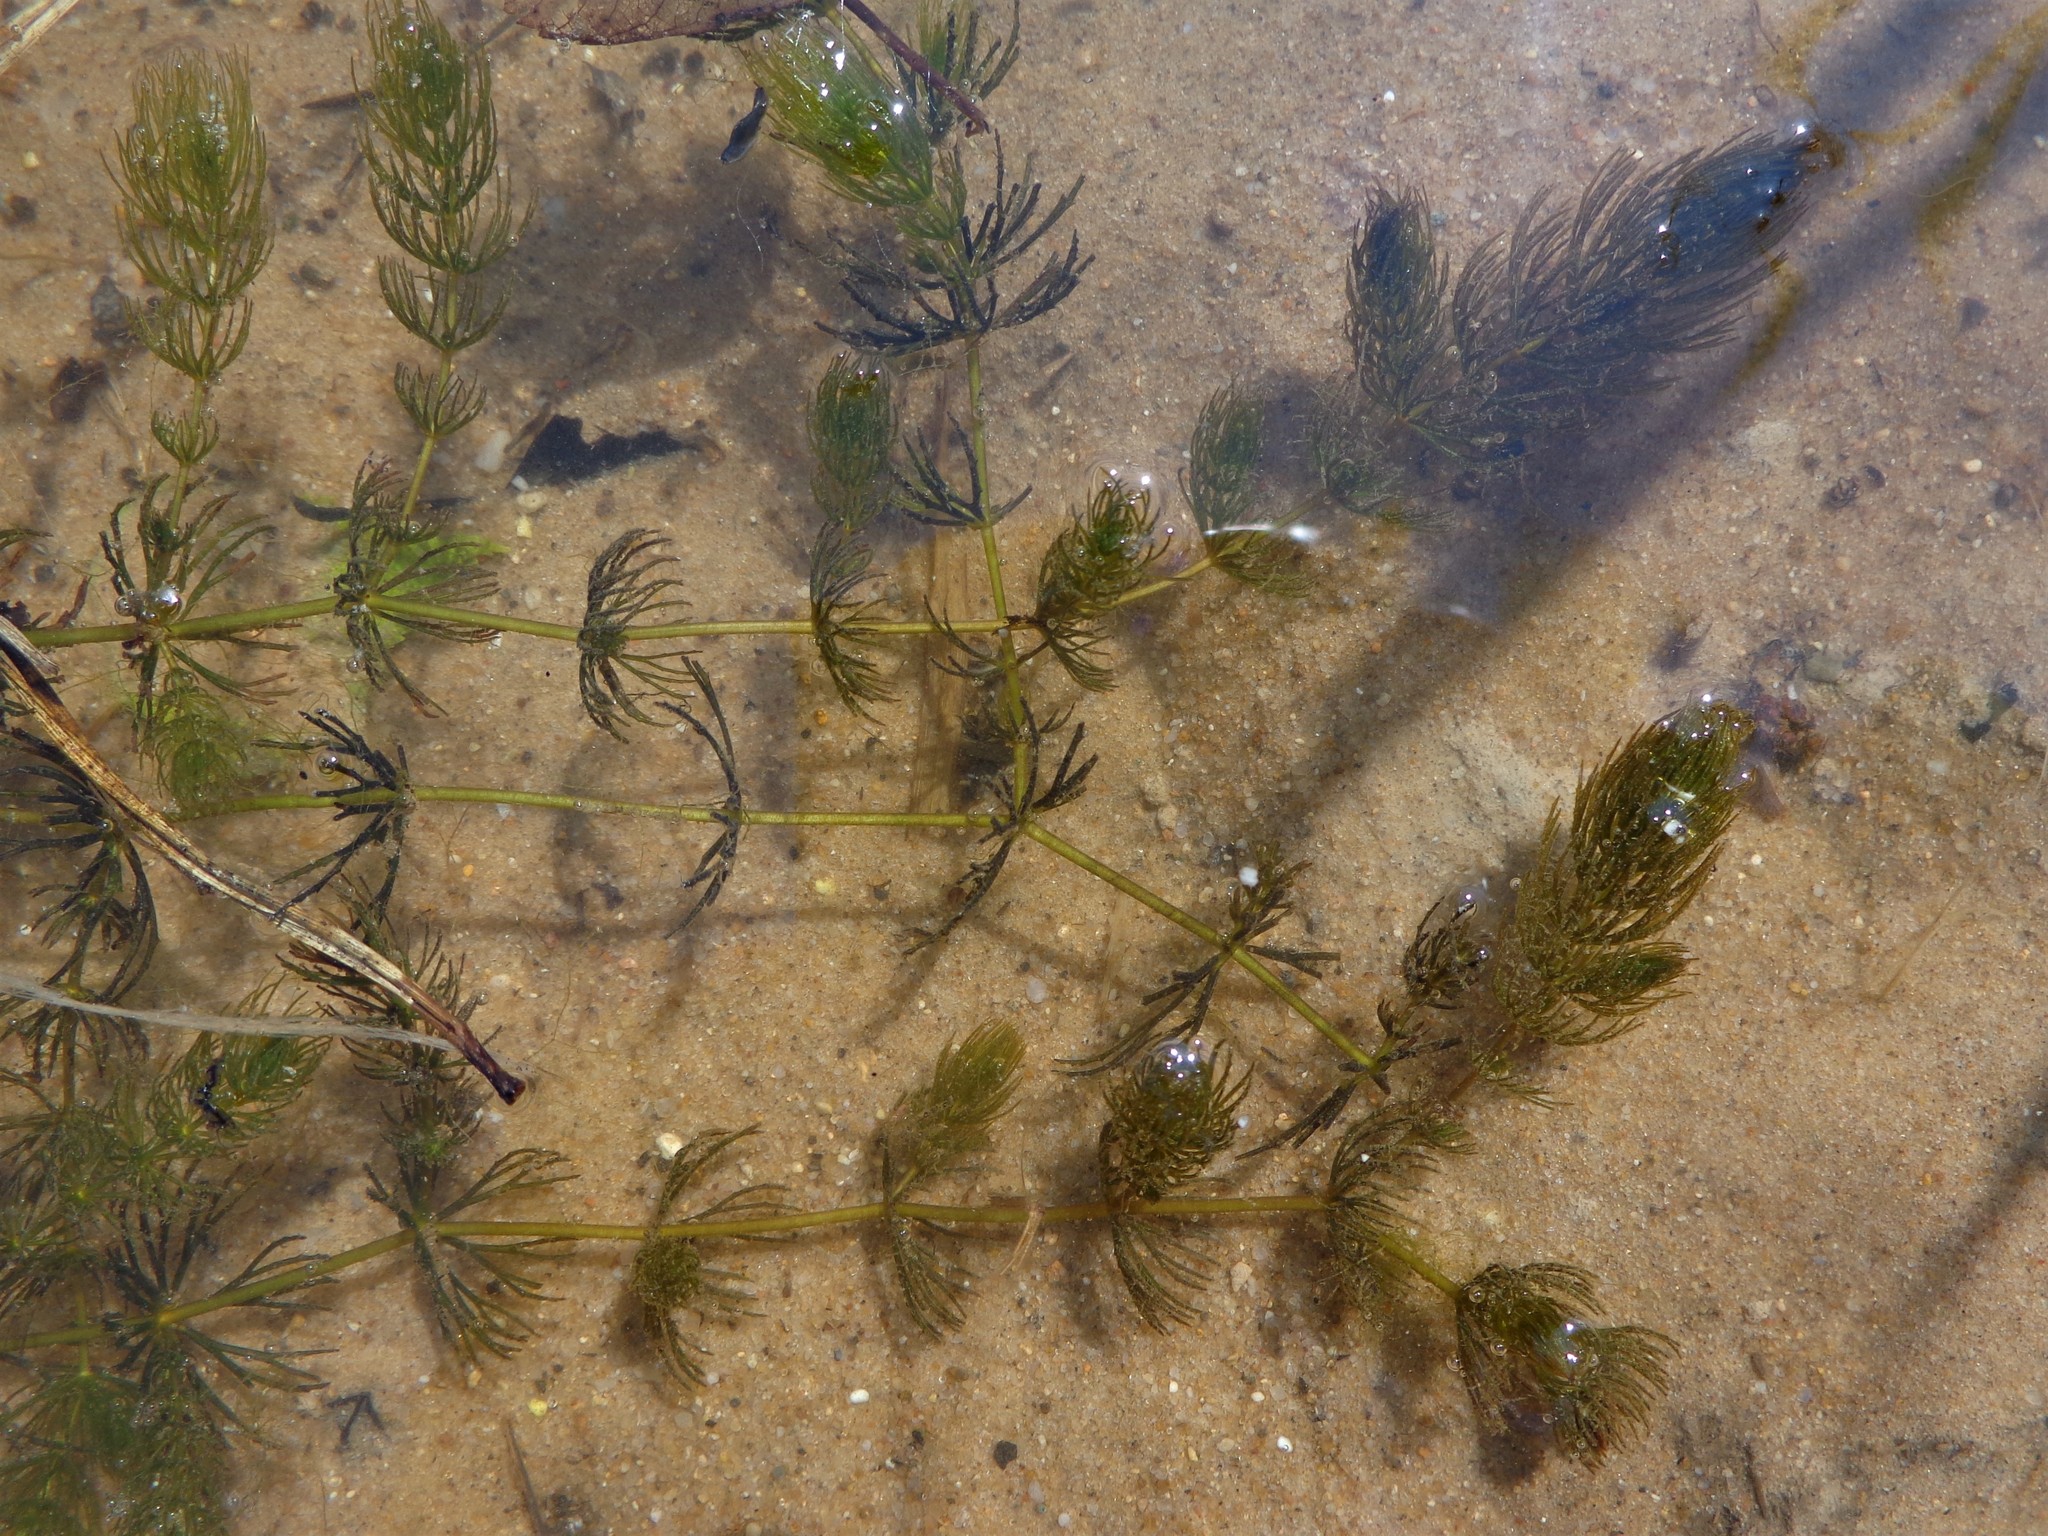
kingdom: Plantae
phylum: Tracheophyta
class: Magnoliopsida
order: Ceratophyllales
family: Ceratophyllaceae
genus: Ceratophyllum
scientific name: Ceratophyllum demersum
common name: Rigid hornwort
